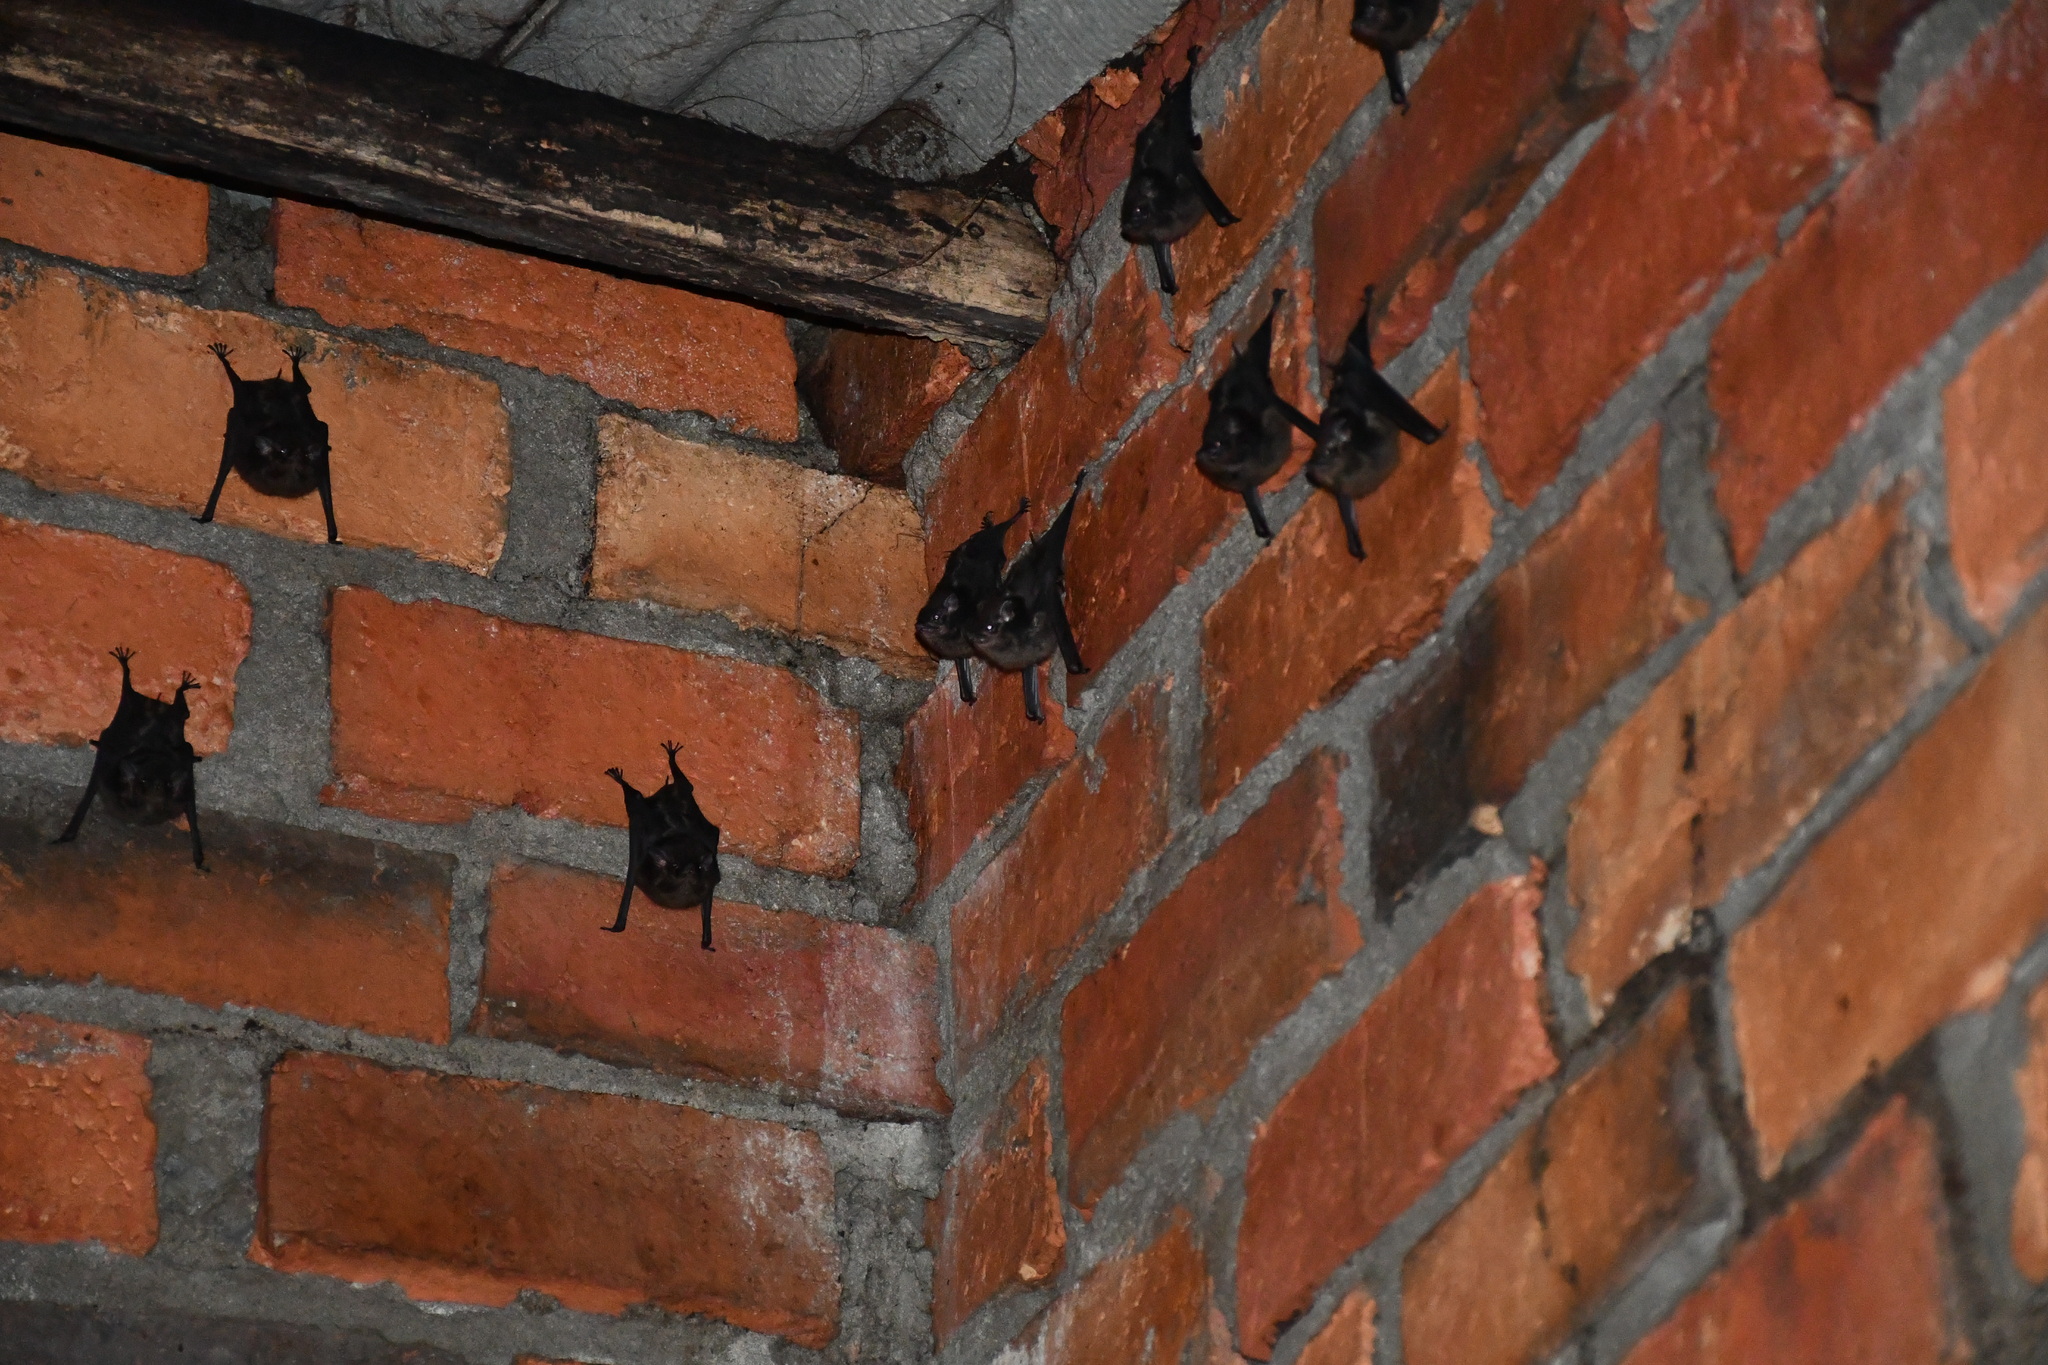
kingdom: Animalia
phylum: Chordata
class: Mammalia
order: Chiroptera
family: Emballonuridae
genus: Saccopteryx
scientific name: Saccopteryx bilineata
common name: Greater sac-winged bat
